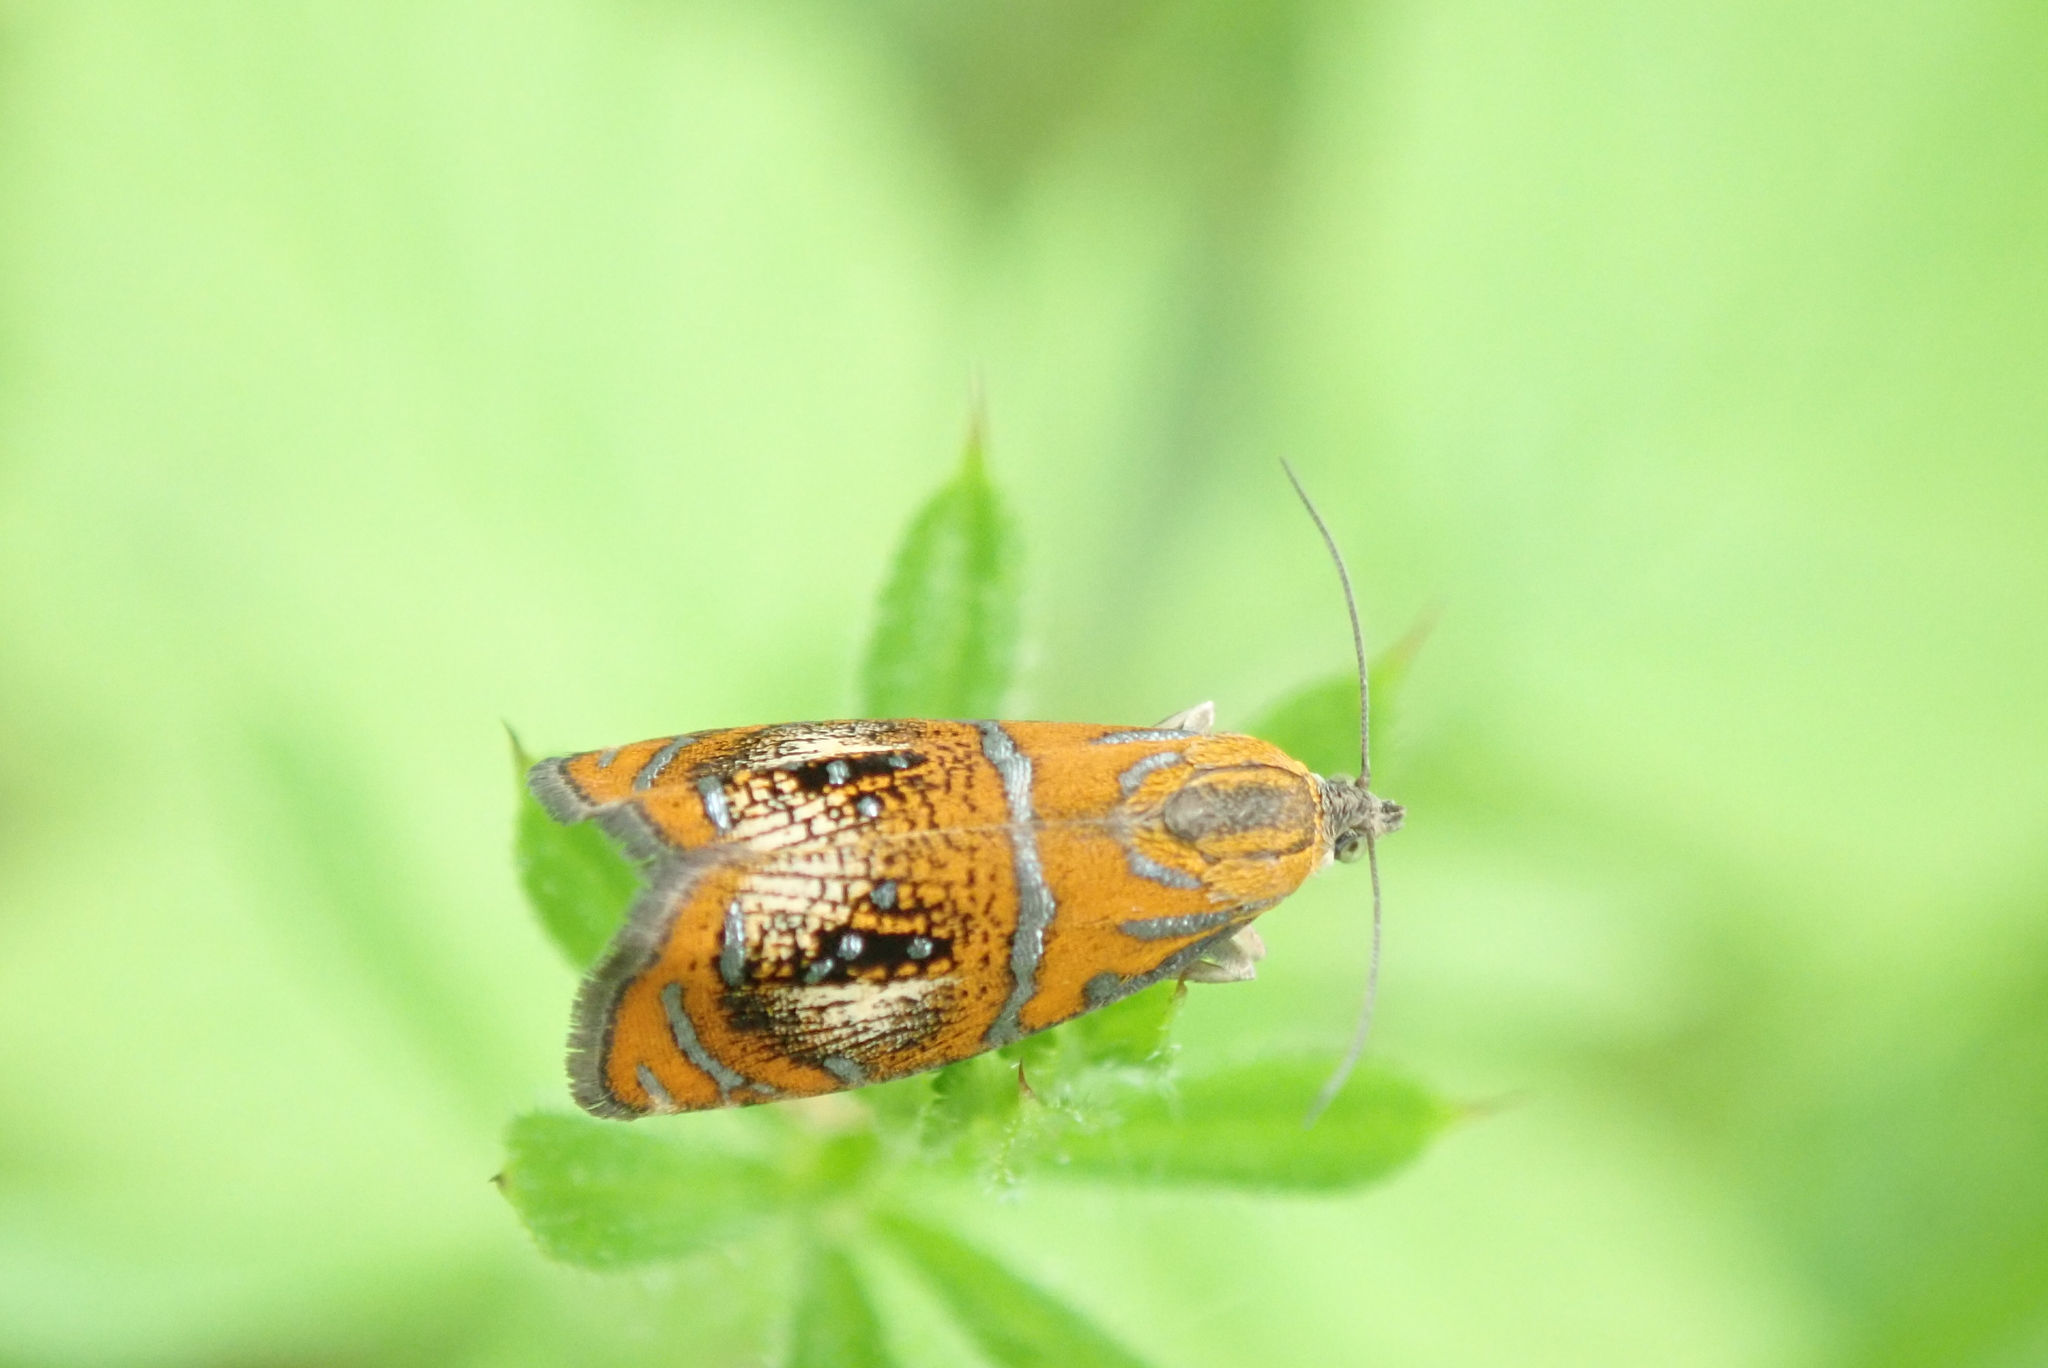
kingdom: Animalia
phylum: Arthropoda
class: Insecta
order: Lepidoptera
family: Tortricidae
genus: Olethreutes
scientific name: Olethreutes arcuella
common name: Arched marble
